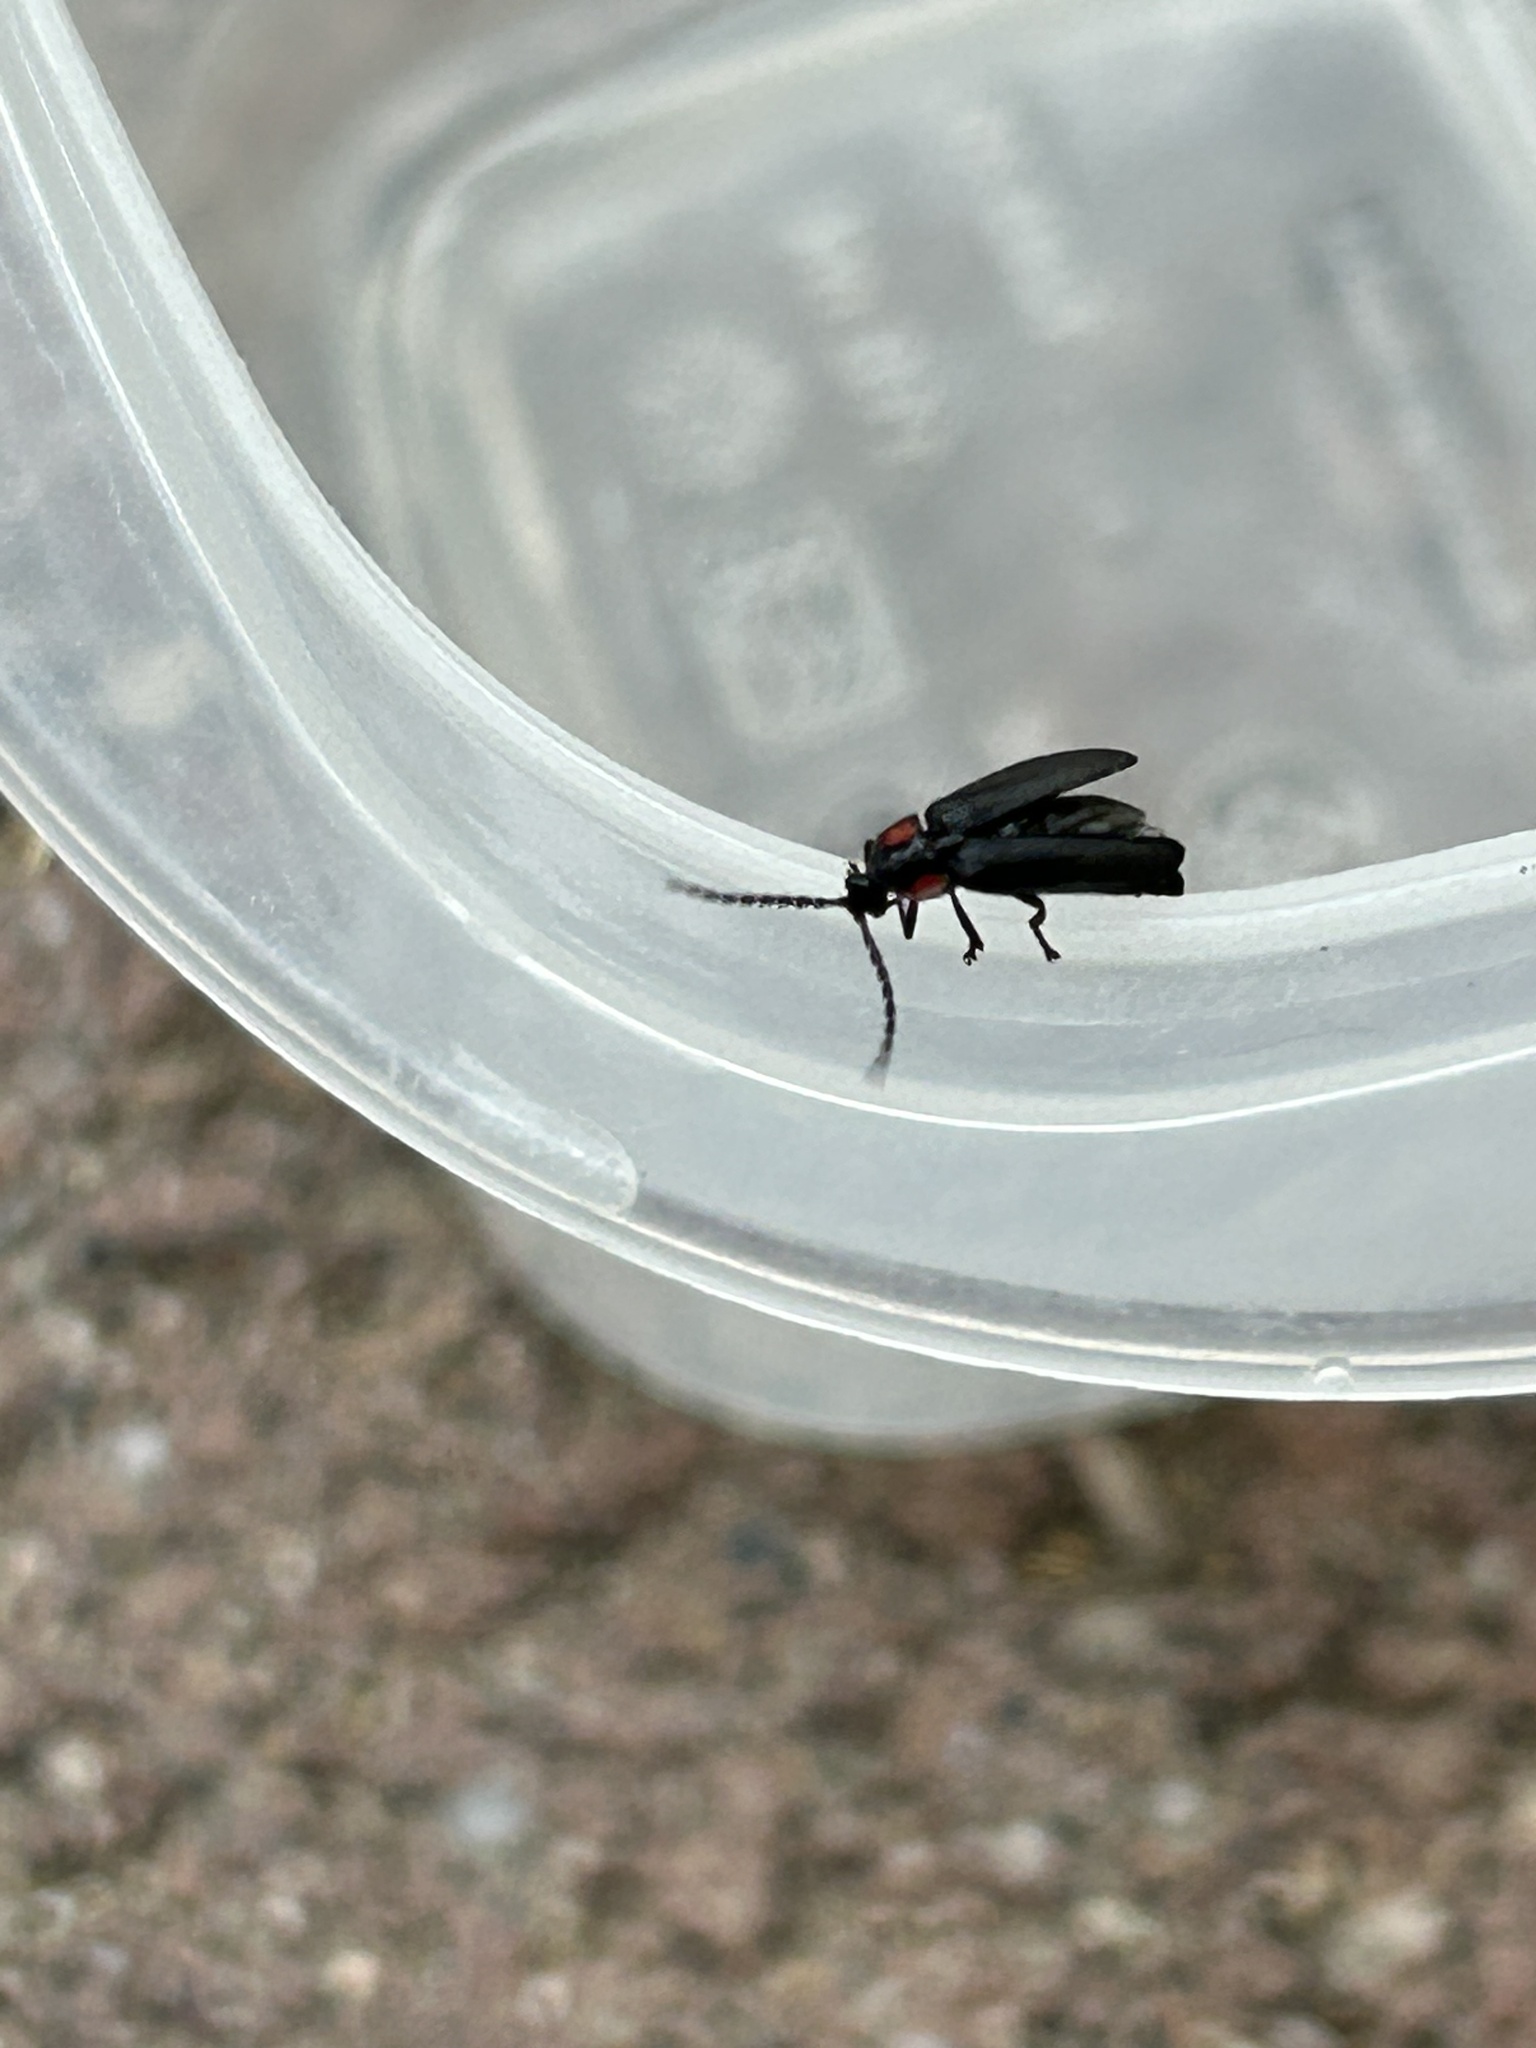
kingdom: Animalia
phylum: Arthropoda
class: Insecta
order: Coleoptera
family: Lampyridae
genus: Pyropyga
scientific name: Pyropyga nigricans
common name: Dark firefly
